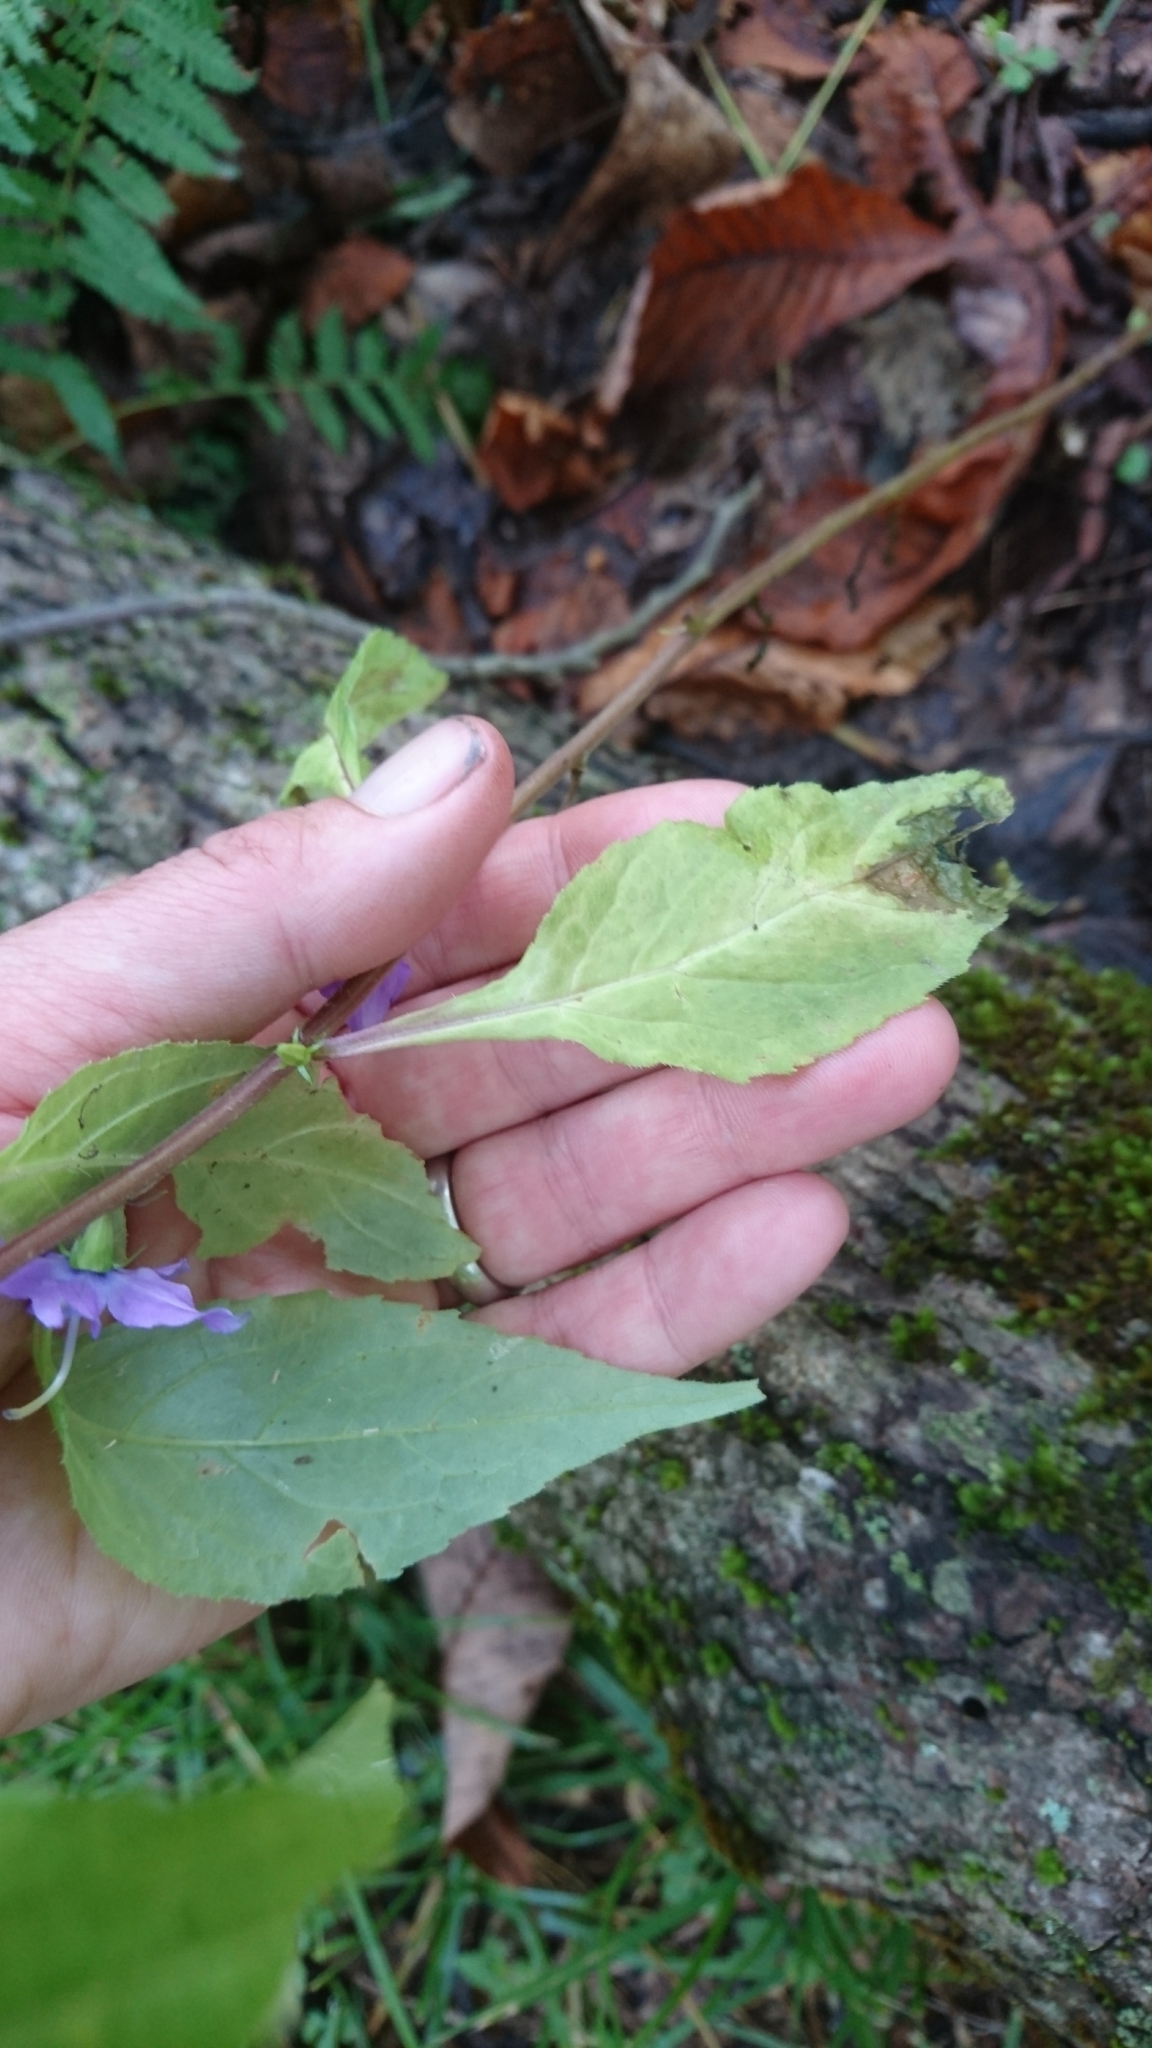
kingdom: Plantae
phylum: Tracheophyta
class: Magnoliopsida
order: Asterales
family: Campanulaceae
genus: Campanulastrum
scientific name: Campanulastrum americanum
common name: American bellflower
